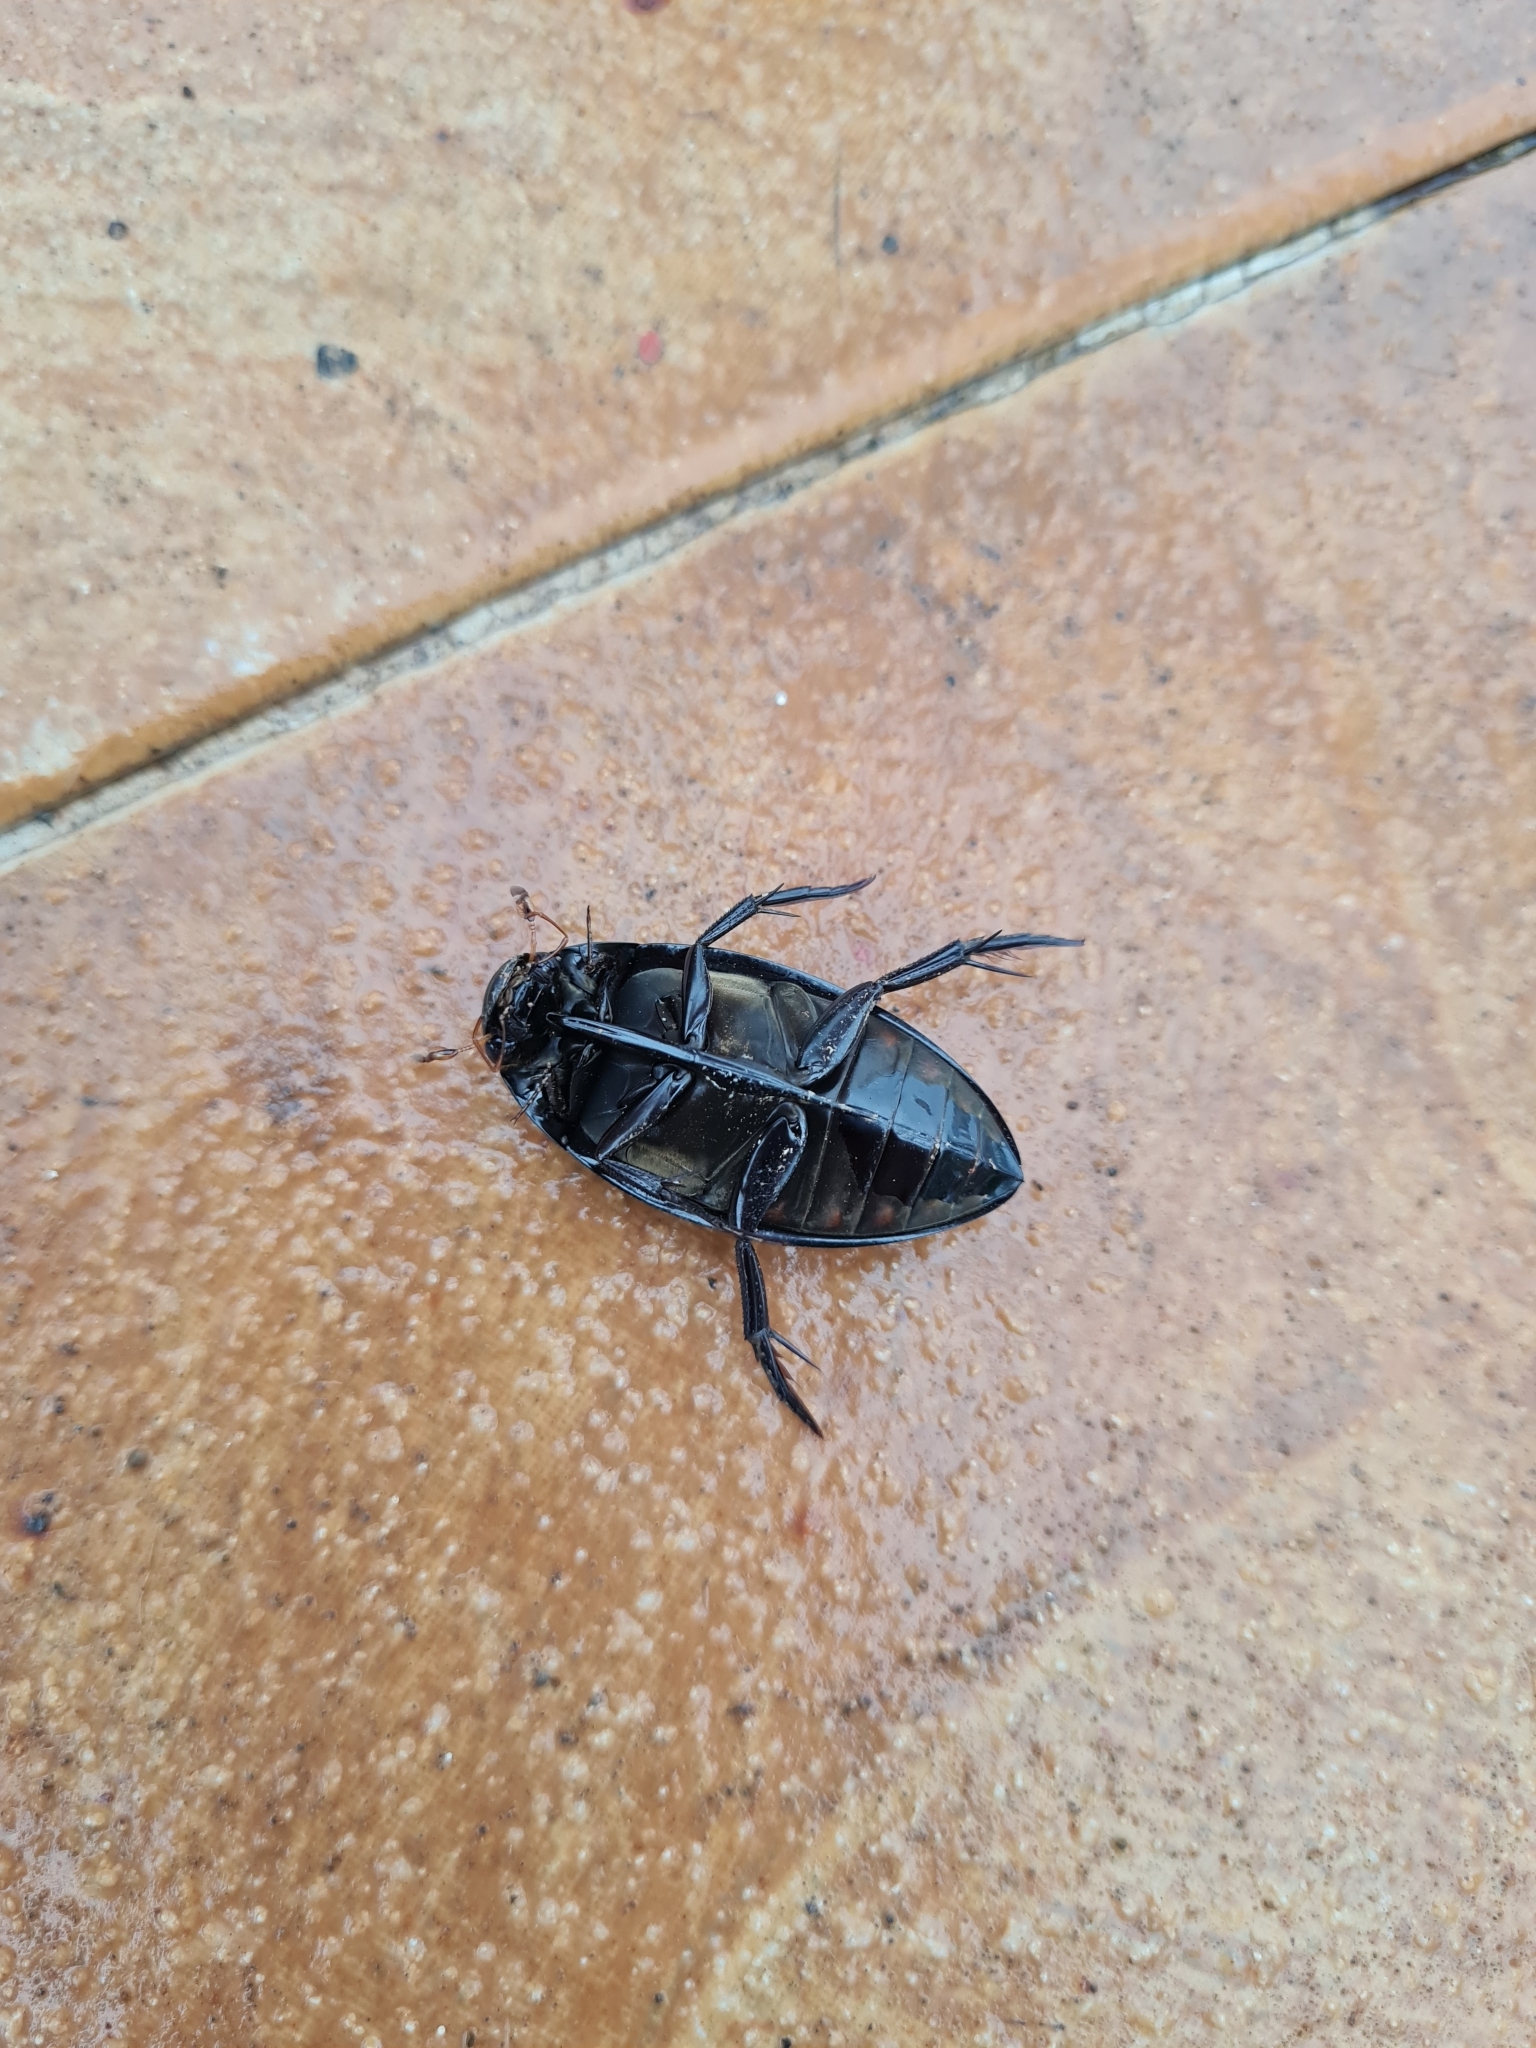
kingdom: Animalia
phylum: Arthropoda
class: Insecta
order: Coleoptera
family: Hydrophilidae
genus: Hydrophilus
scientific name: Hydrophilus ensifer
